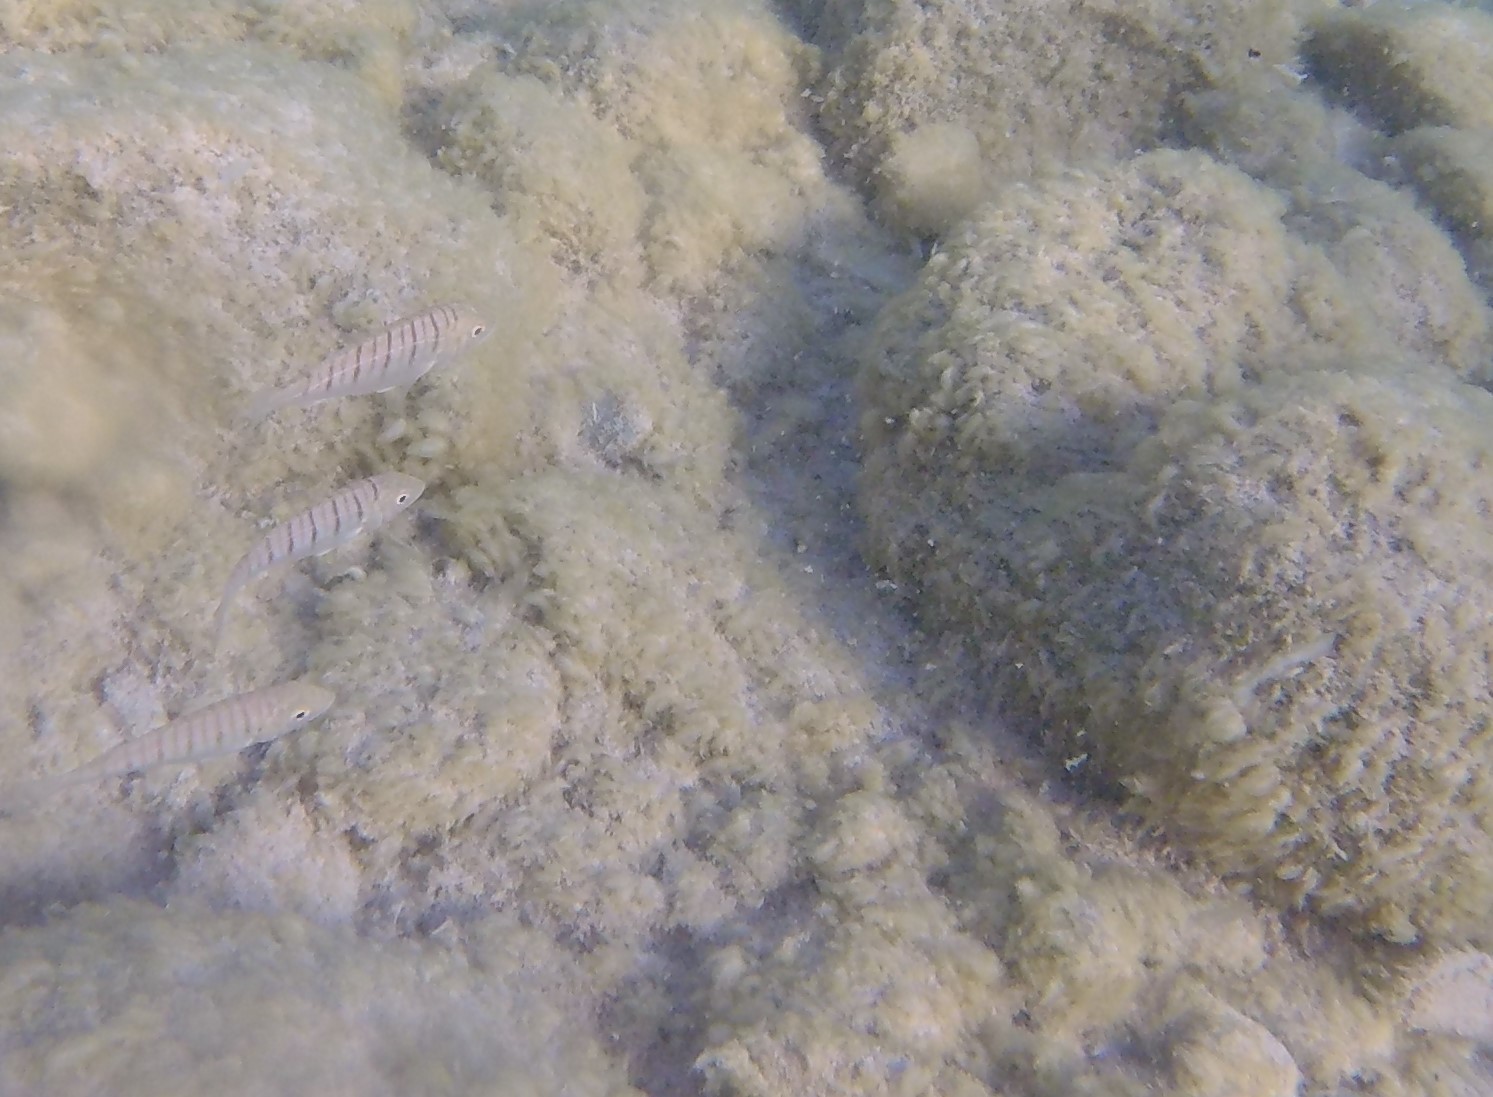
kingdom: Animalia
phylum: Chordata
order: Perciformes
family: Sparidae
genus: Lithognathus
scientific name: Lithognathus mormyrus
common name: Sand steenbras
